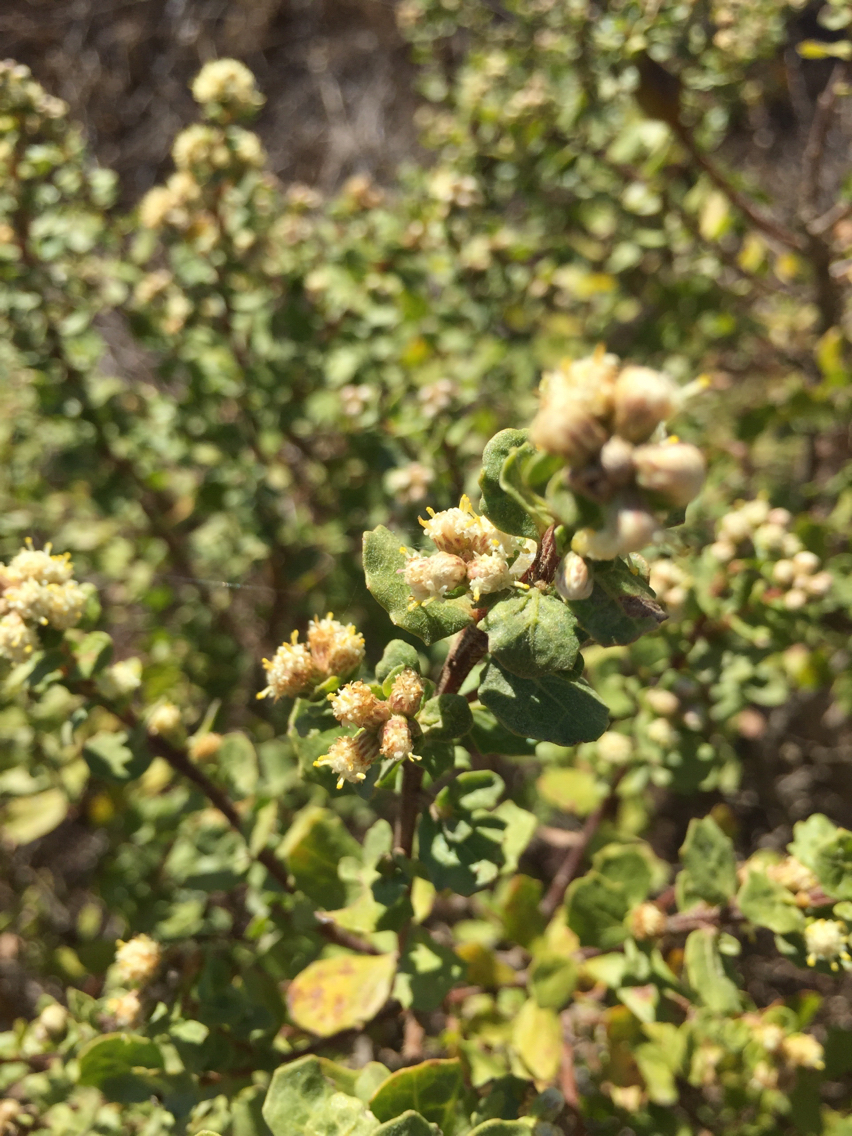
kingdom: Plantae
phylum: Tracheophyta
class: Magnoliopsida
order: Asterales
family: Asteraceae
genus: Baccharis
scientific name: Baccharis pilularis
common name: Coyotebrush
